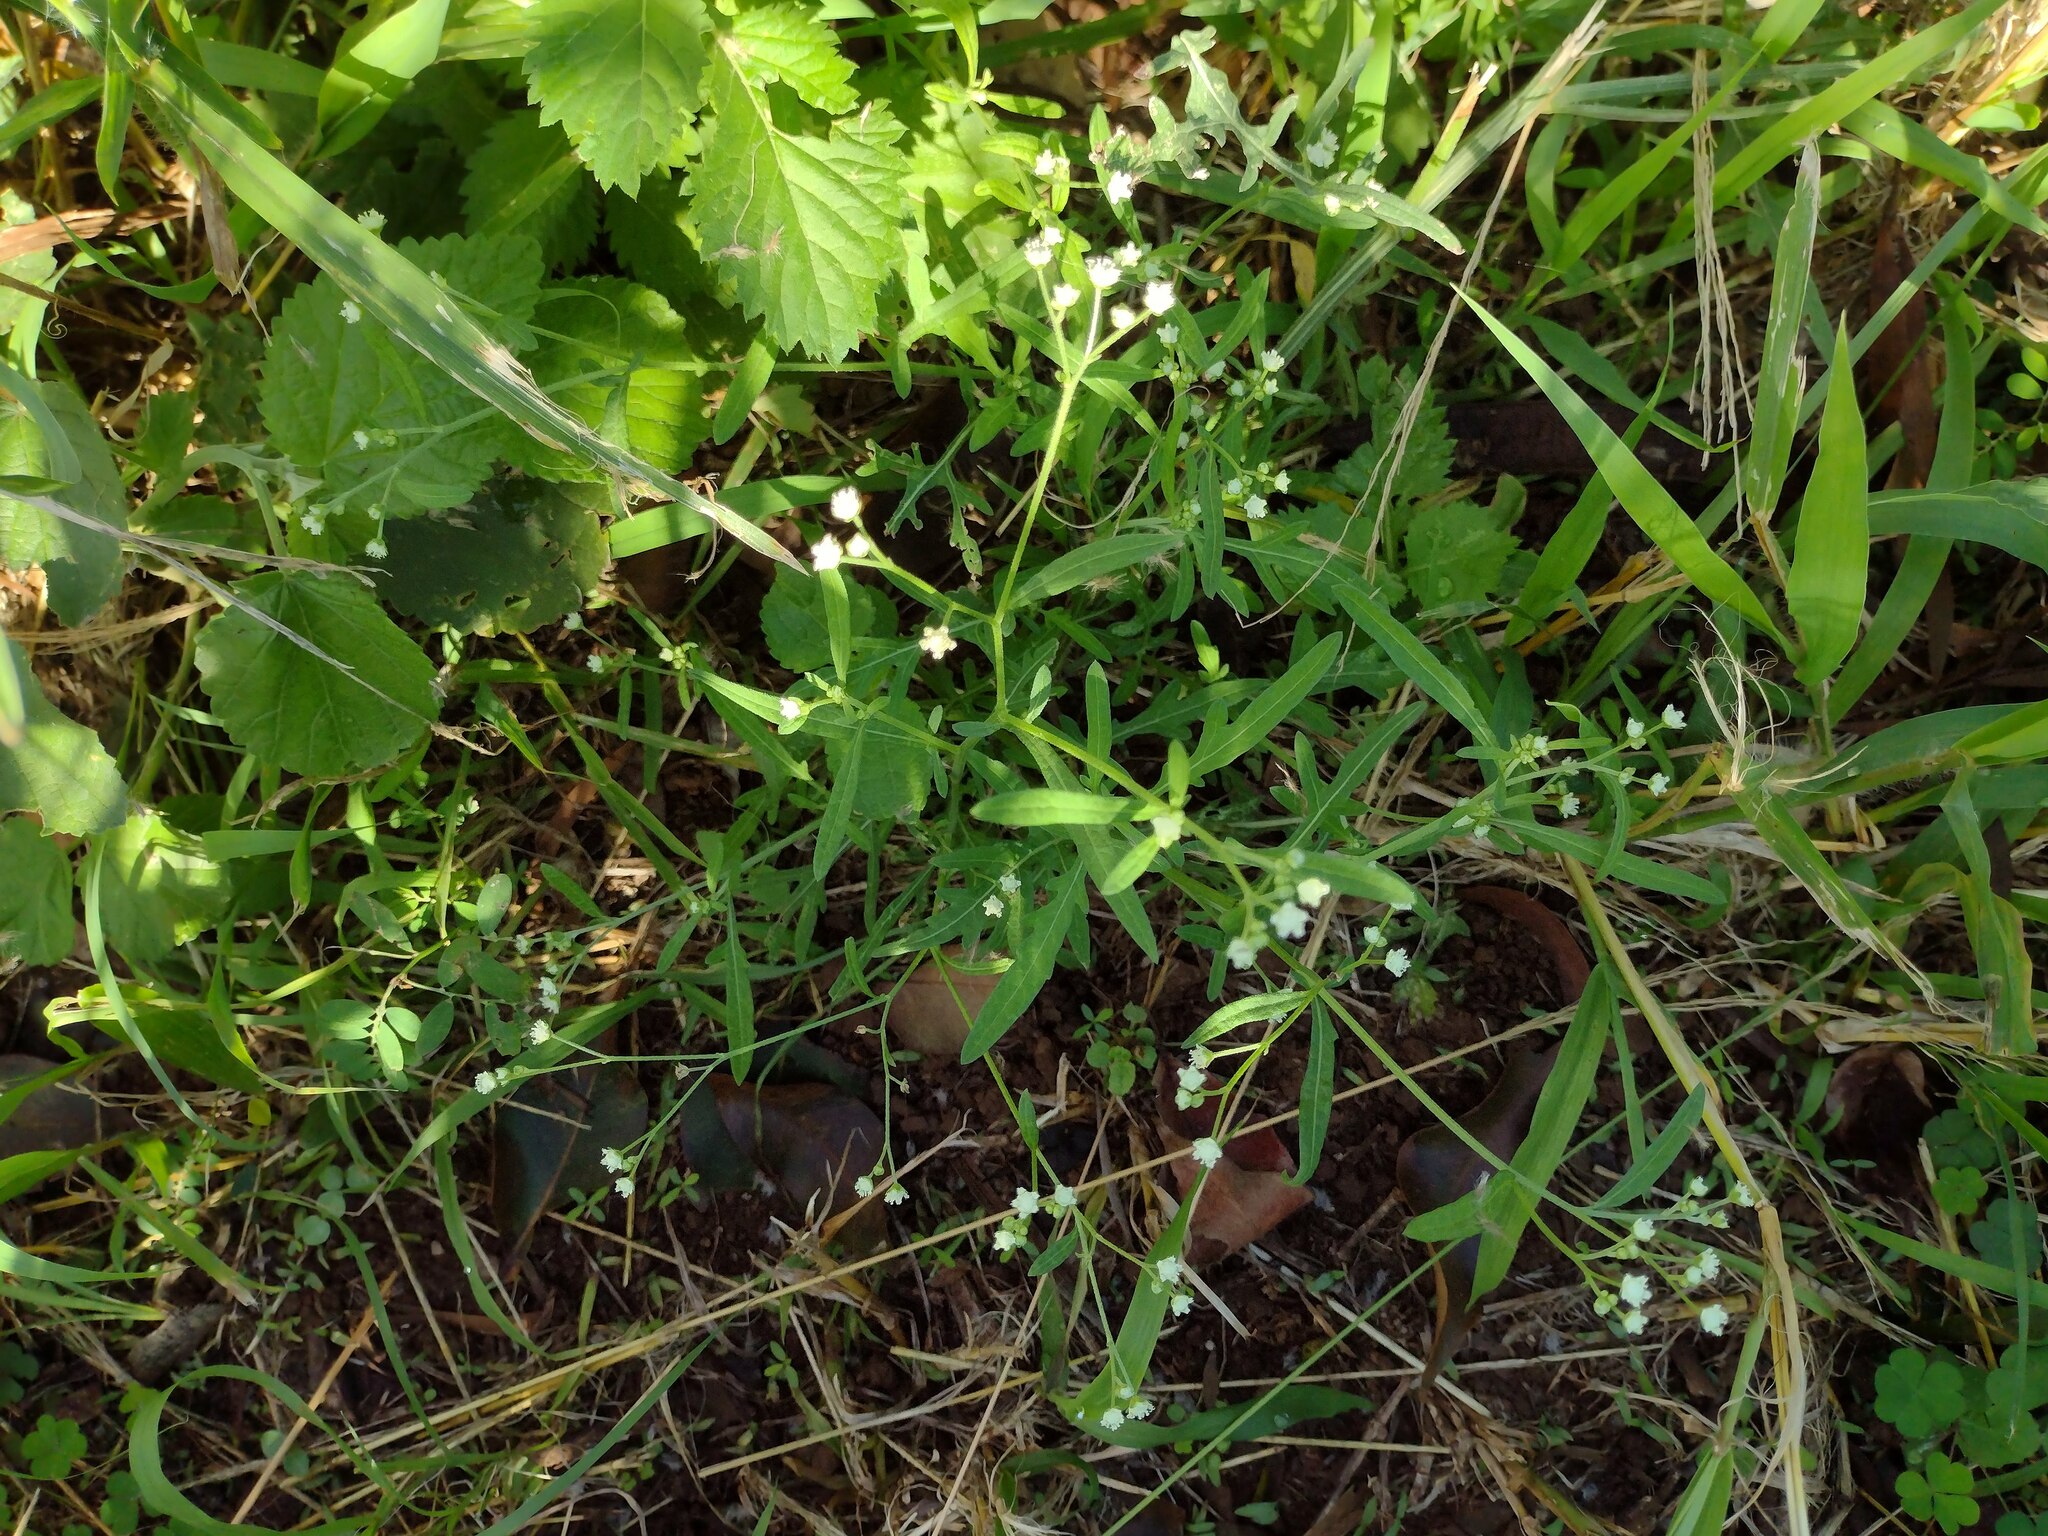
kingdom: Plantae
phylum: Tracheophyta
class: Magnoliopsida
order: Asterales
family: Asteraceae
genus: Parthenium
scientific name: Parthenium hysterophorus
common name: Santa maria feverfew
